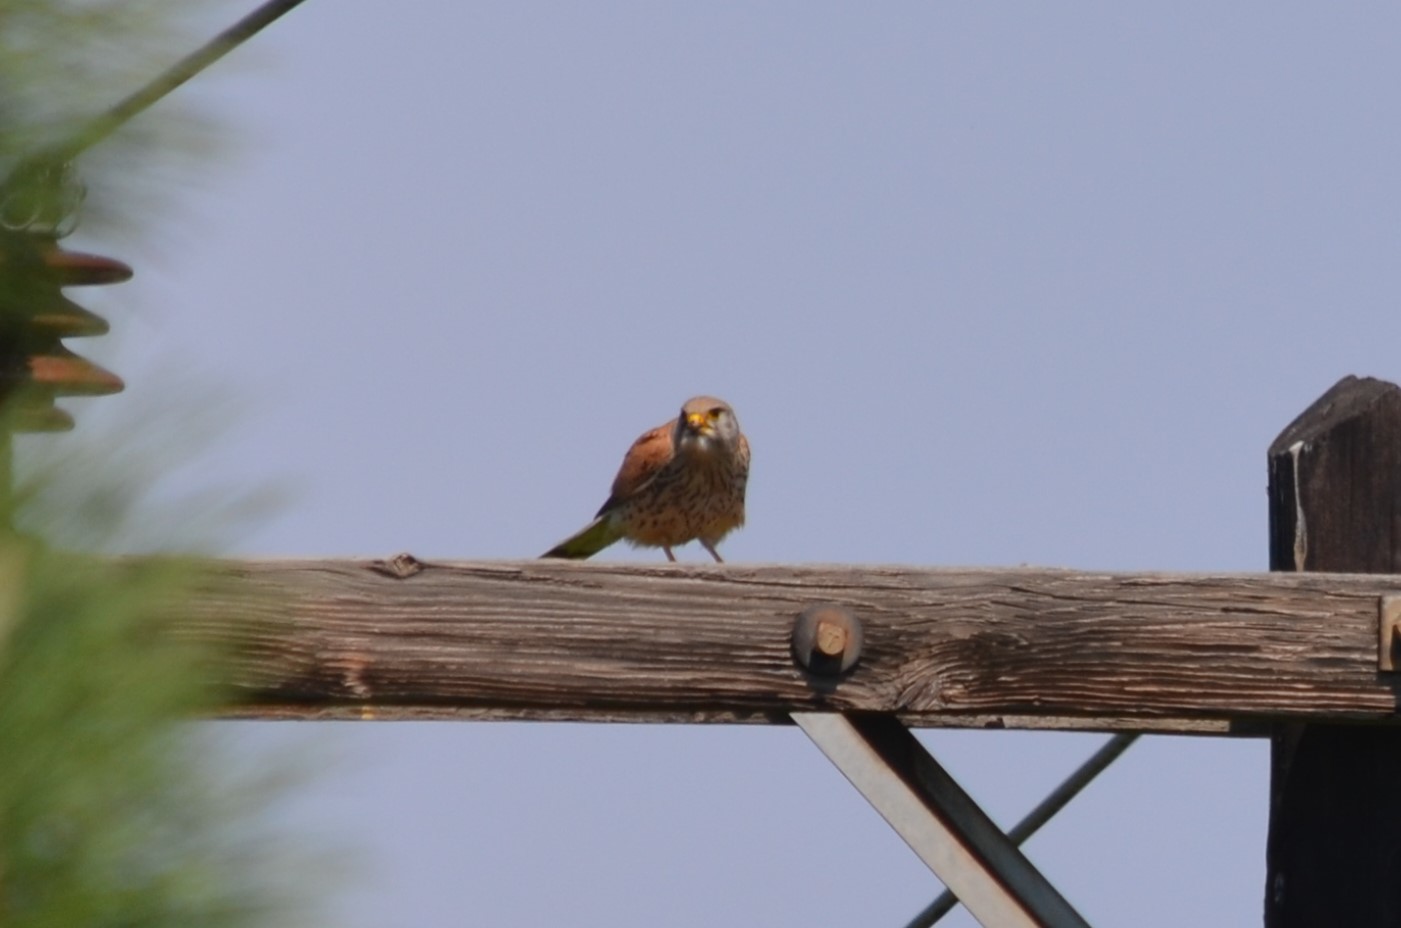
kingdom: Animalia
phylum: Chordata
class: Aves
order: Falconiformes
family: Falconidae
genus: Falco
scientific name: Falco tinnunculus
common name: Common kestrel
